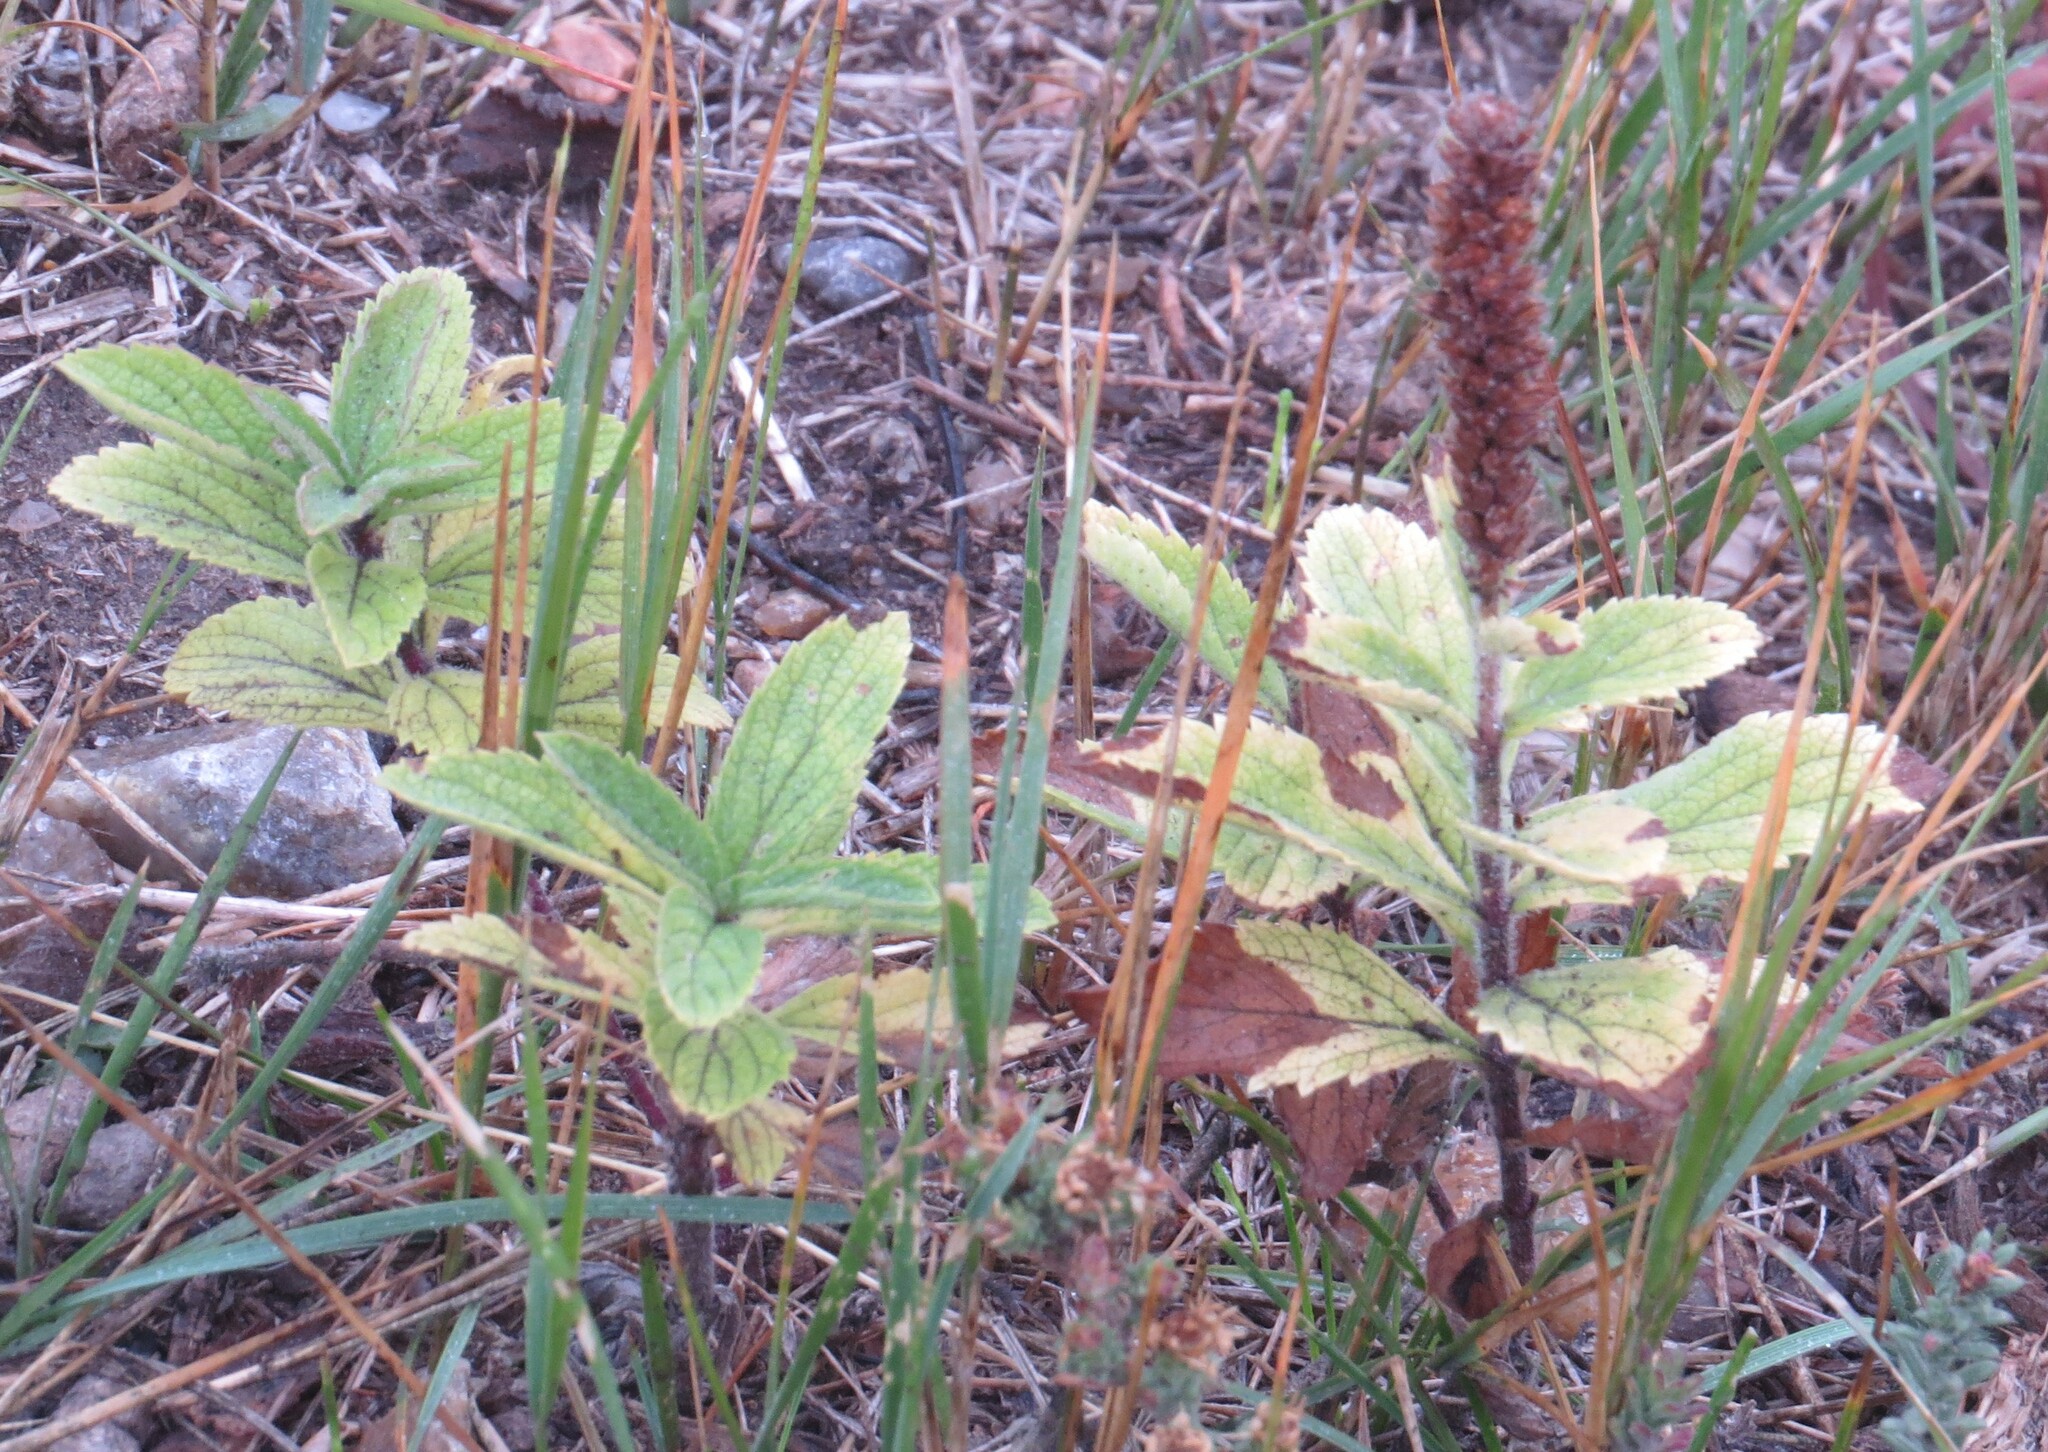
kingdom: Plantae
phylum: Tracheophyta
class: Magnoliopsida
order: Lamiales
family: Verbenaceae
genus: Verbena
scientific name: Verbena stricta
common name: Hoary vervain
